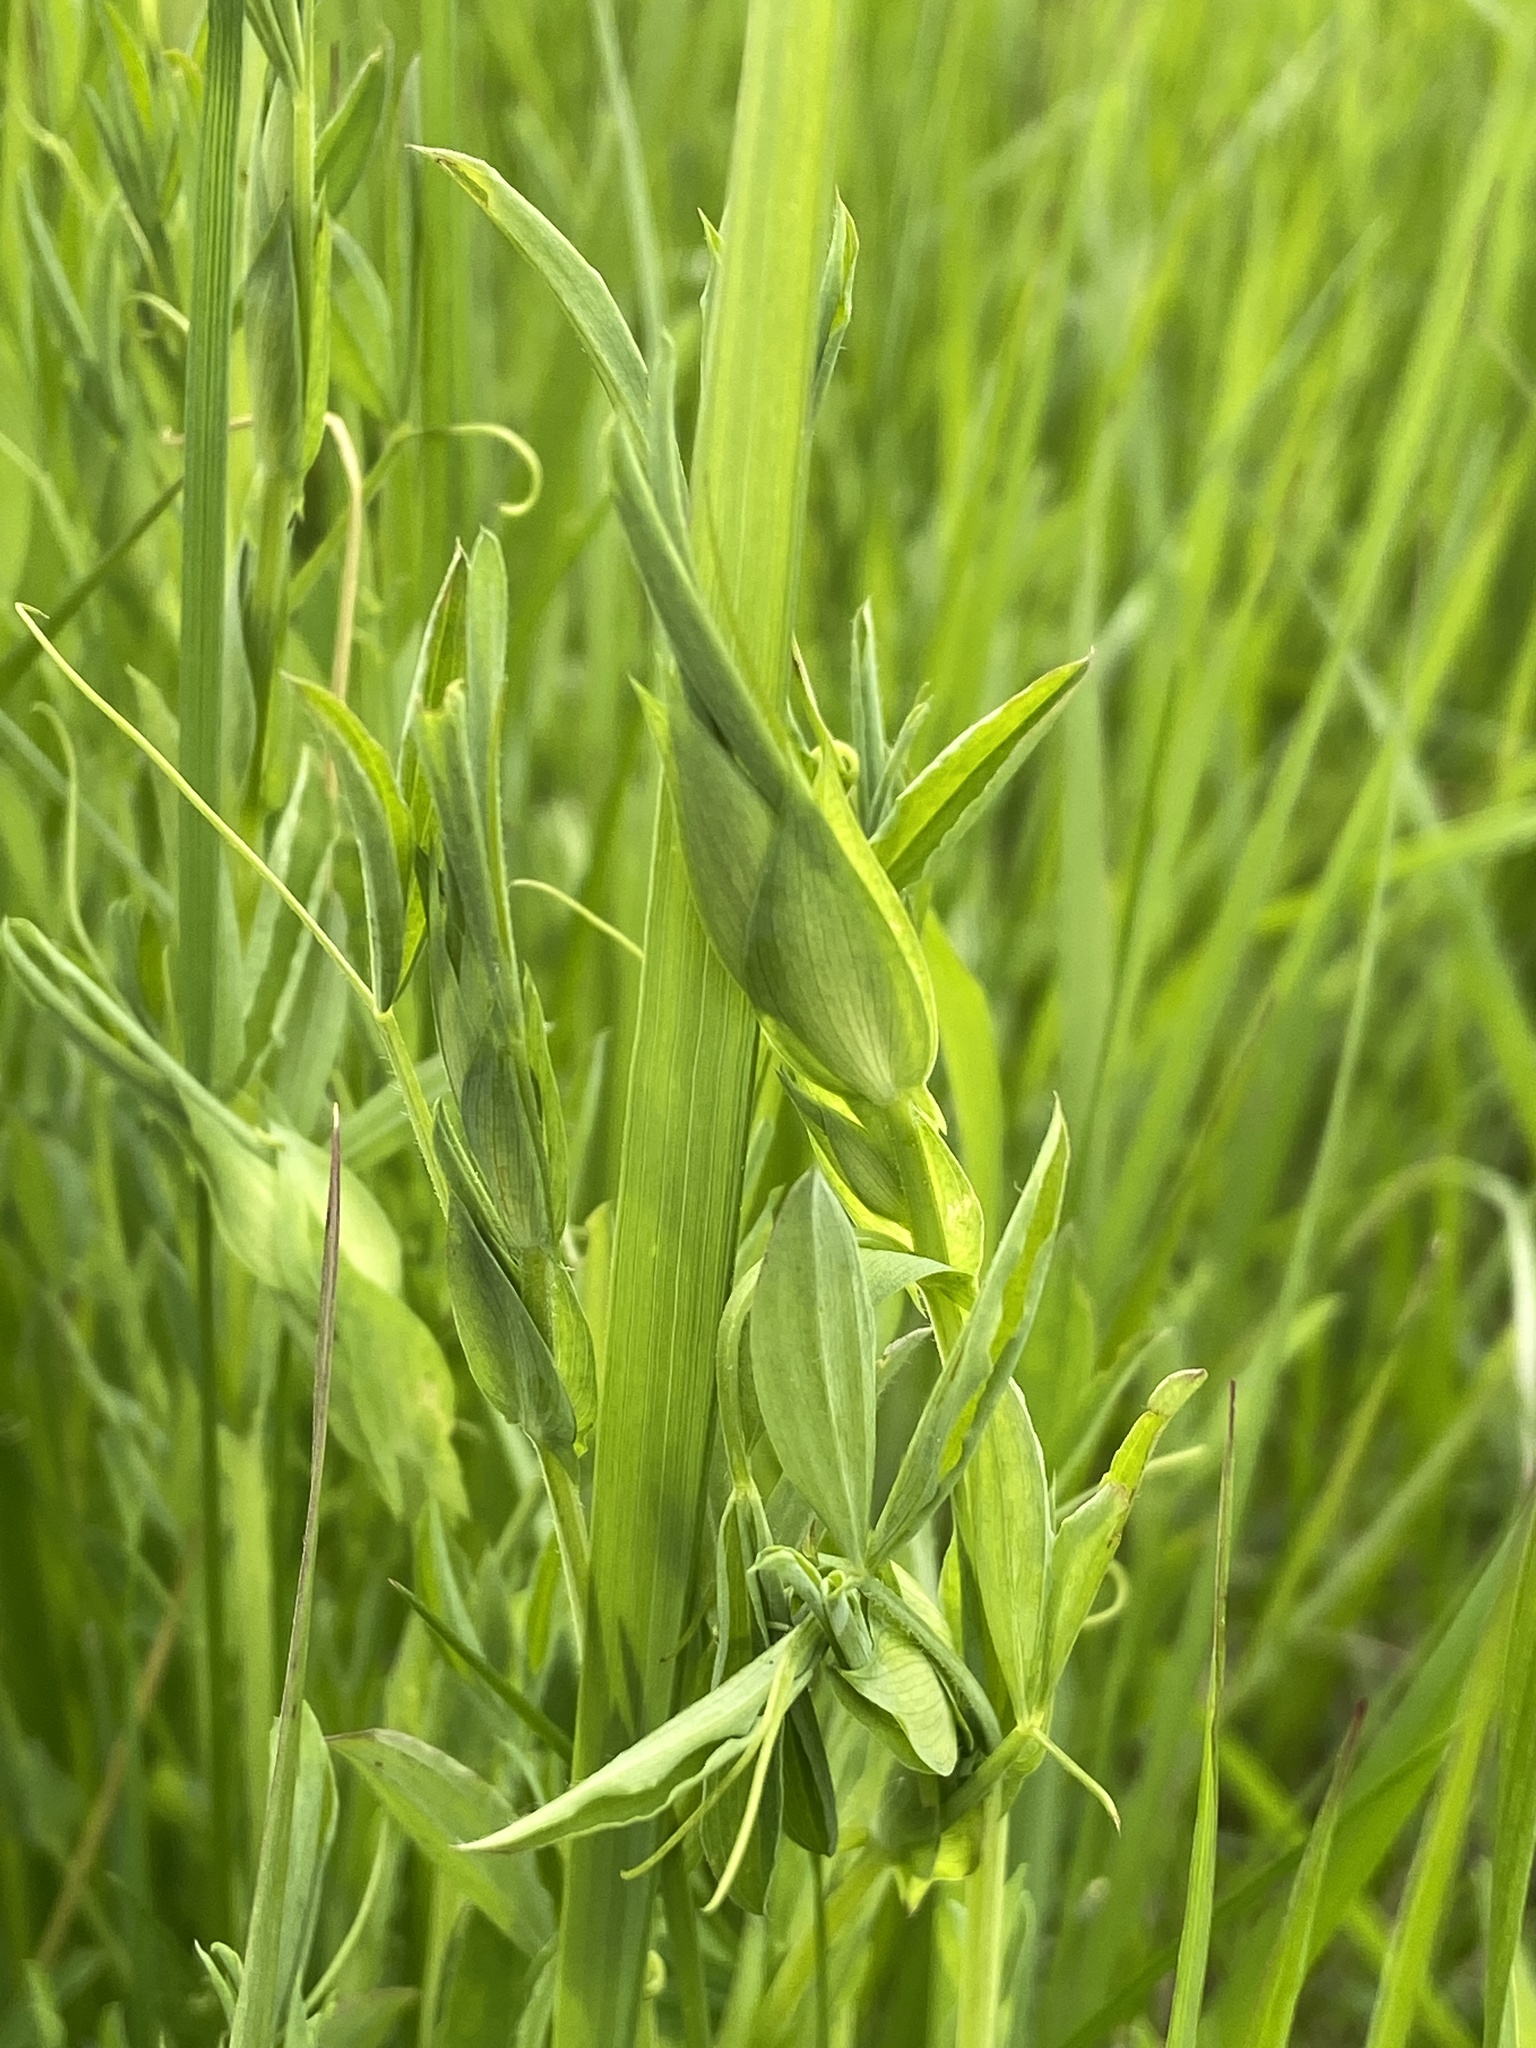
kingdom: Plantae
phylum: Tracheophyta
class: Magnoliopsida
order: Fabales
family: Fabaceae
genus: Lathyrus
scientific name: Lathyrus pratensis
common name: Meadow vetchling
